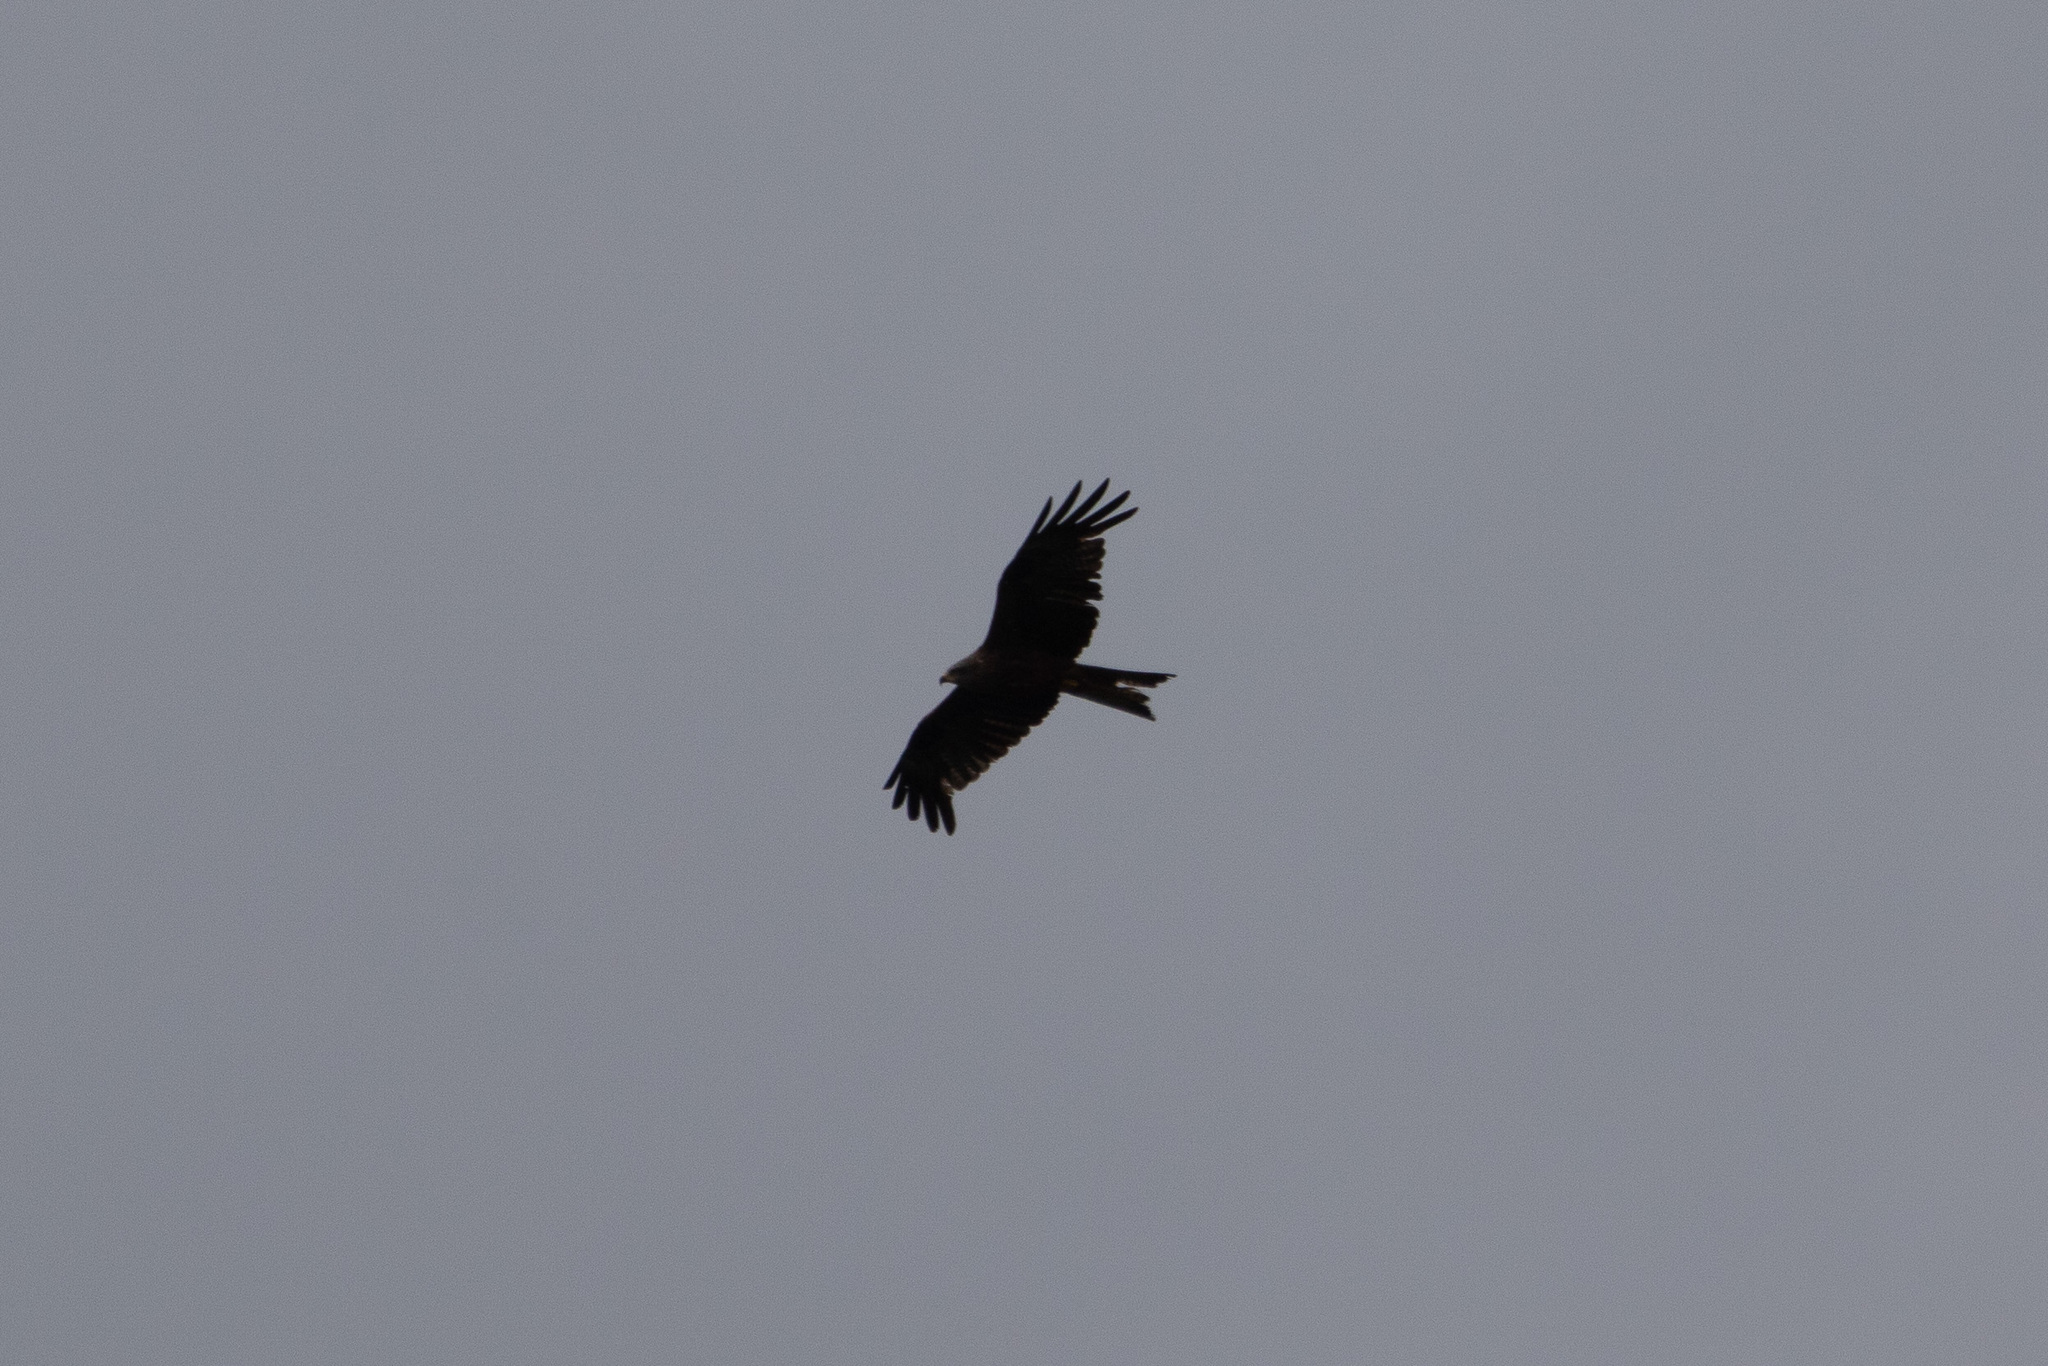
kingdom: Animalia
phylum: Chordata
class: Aves
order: Accipitriformes
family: Accipitridae
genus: Milvus
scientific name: Milvus migrans
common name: Black kite
